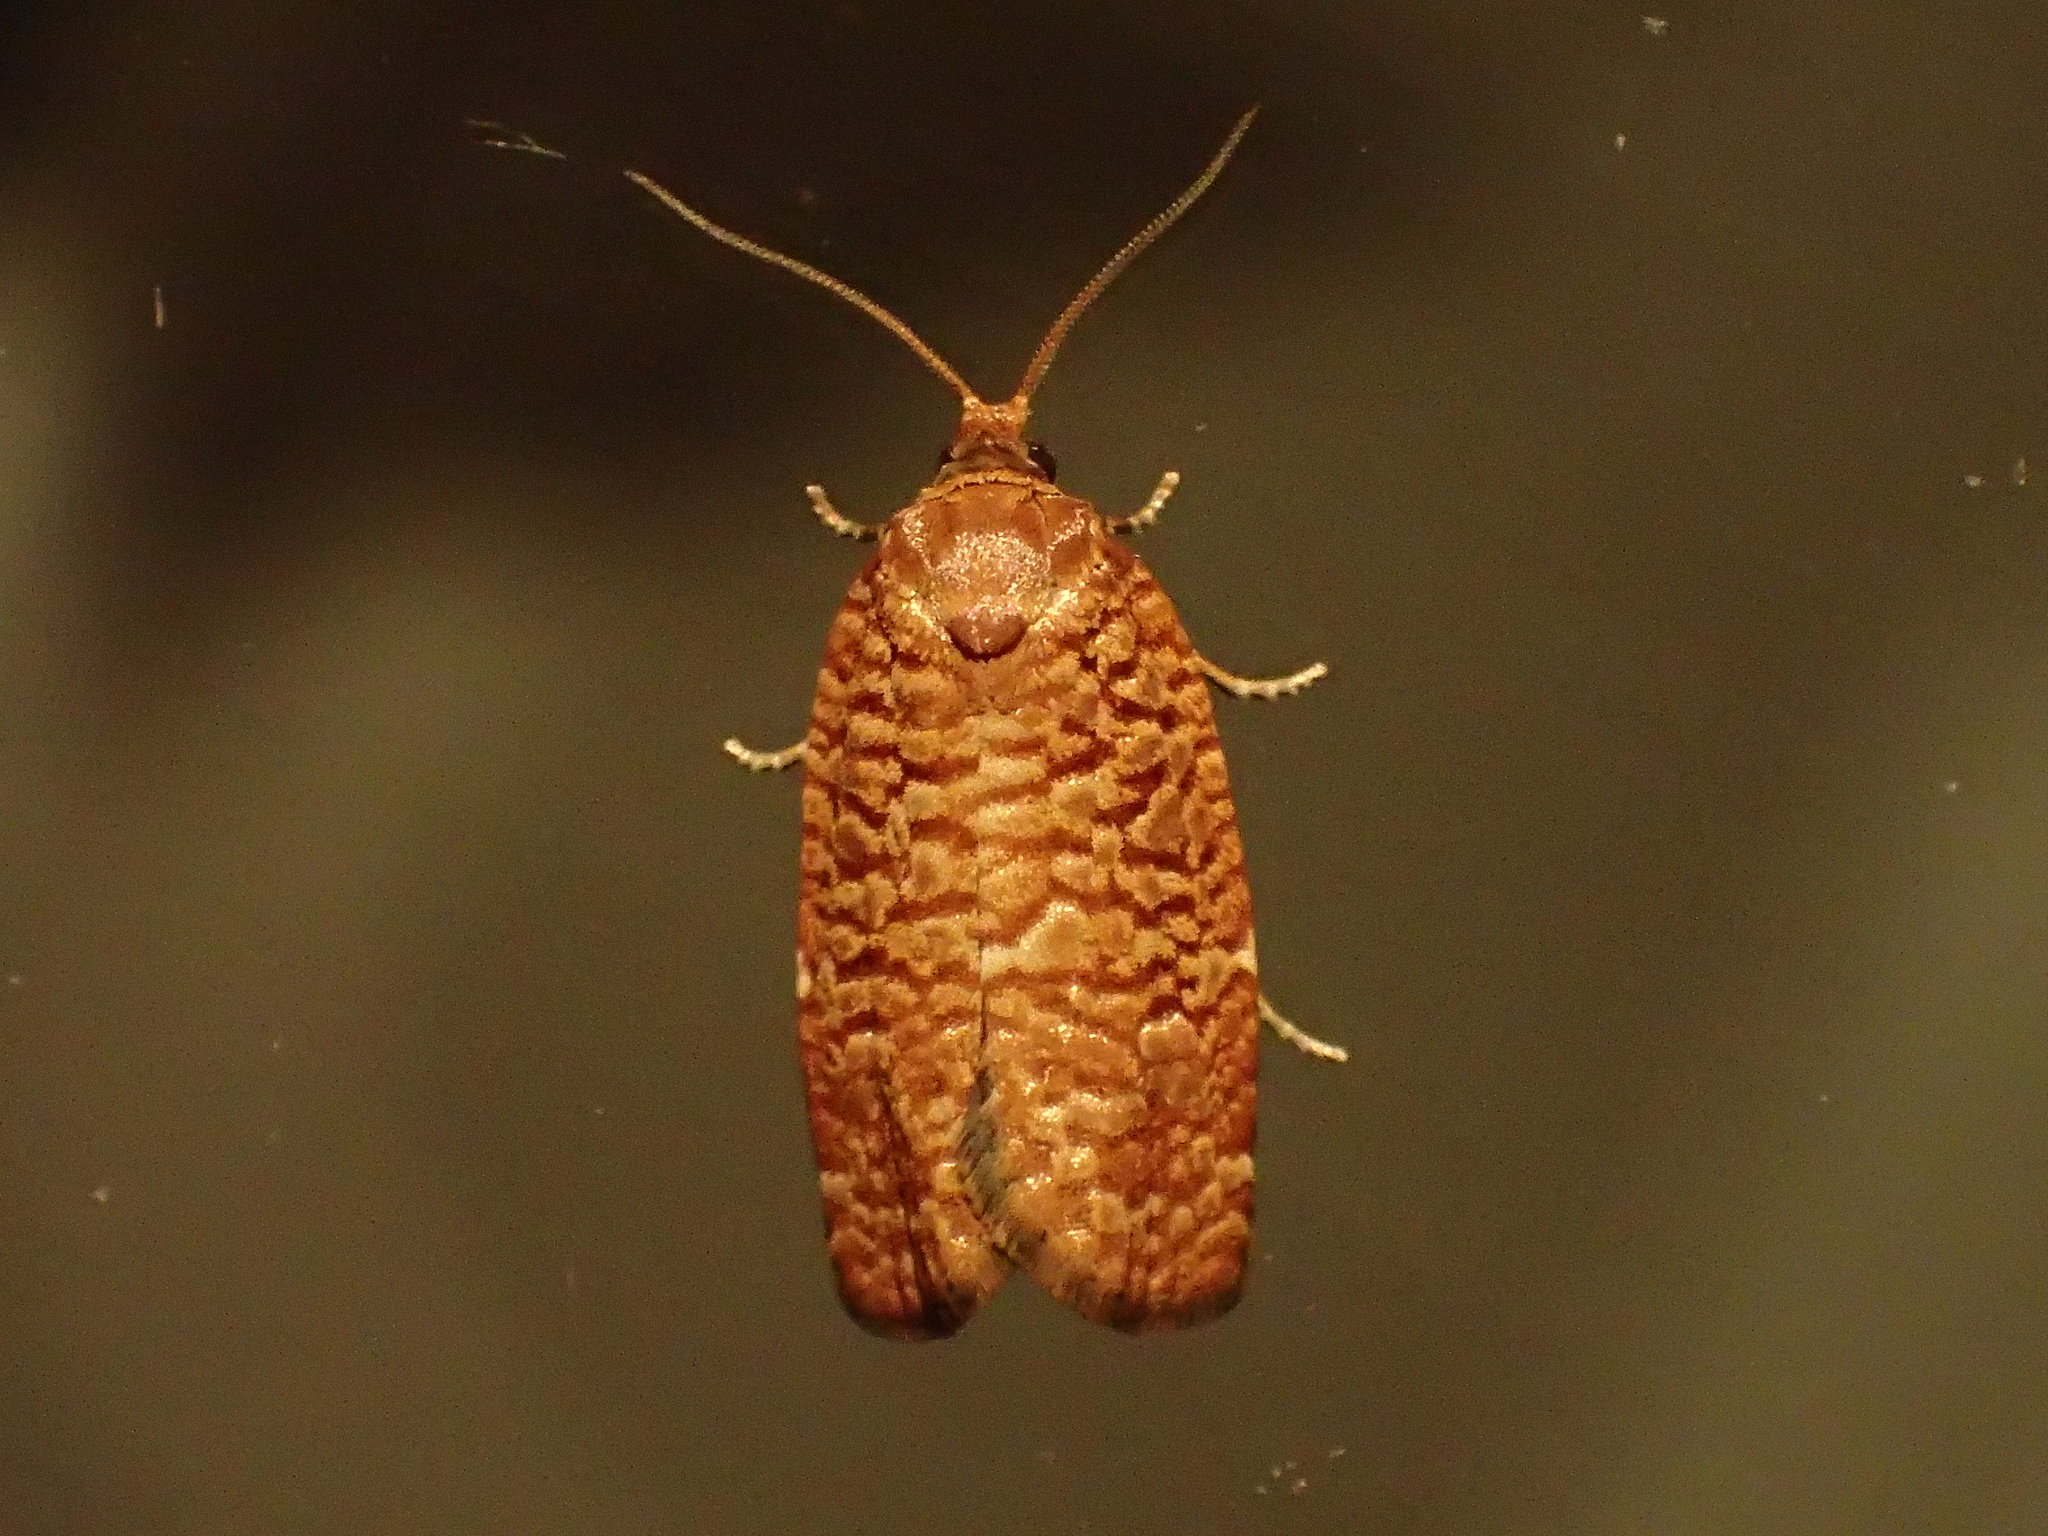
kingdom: Animalia
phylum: Arthropoda
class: Insecta
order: Lepidoptera
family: Tortricidae
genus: Choristoneura
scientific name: Choristoneura pinus
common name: Jack pine budworm
